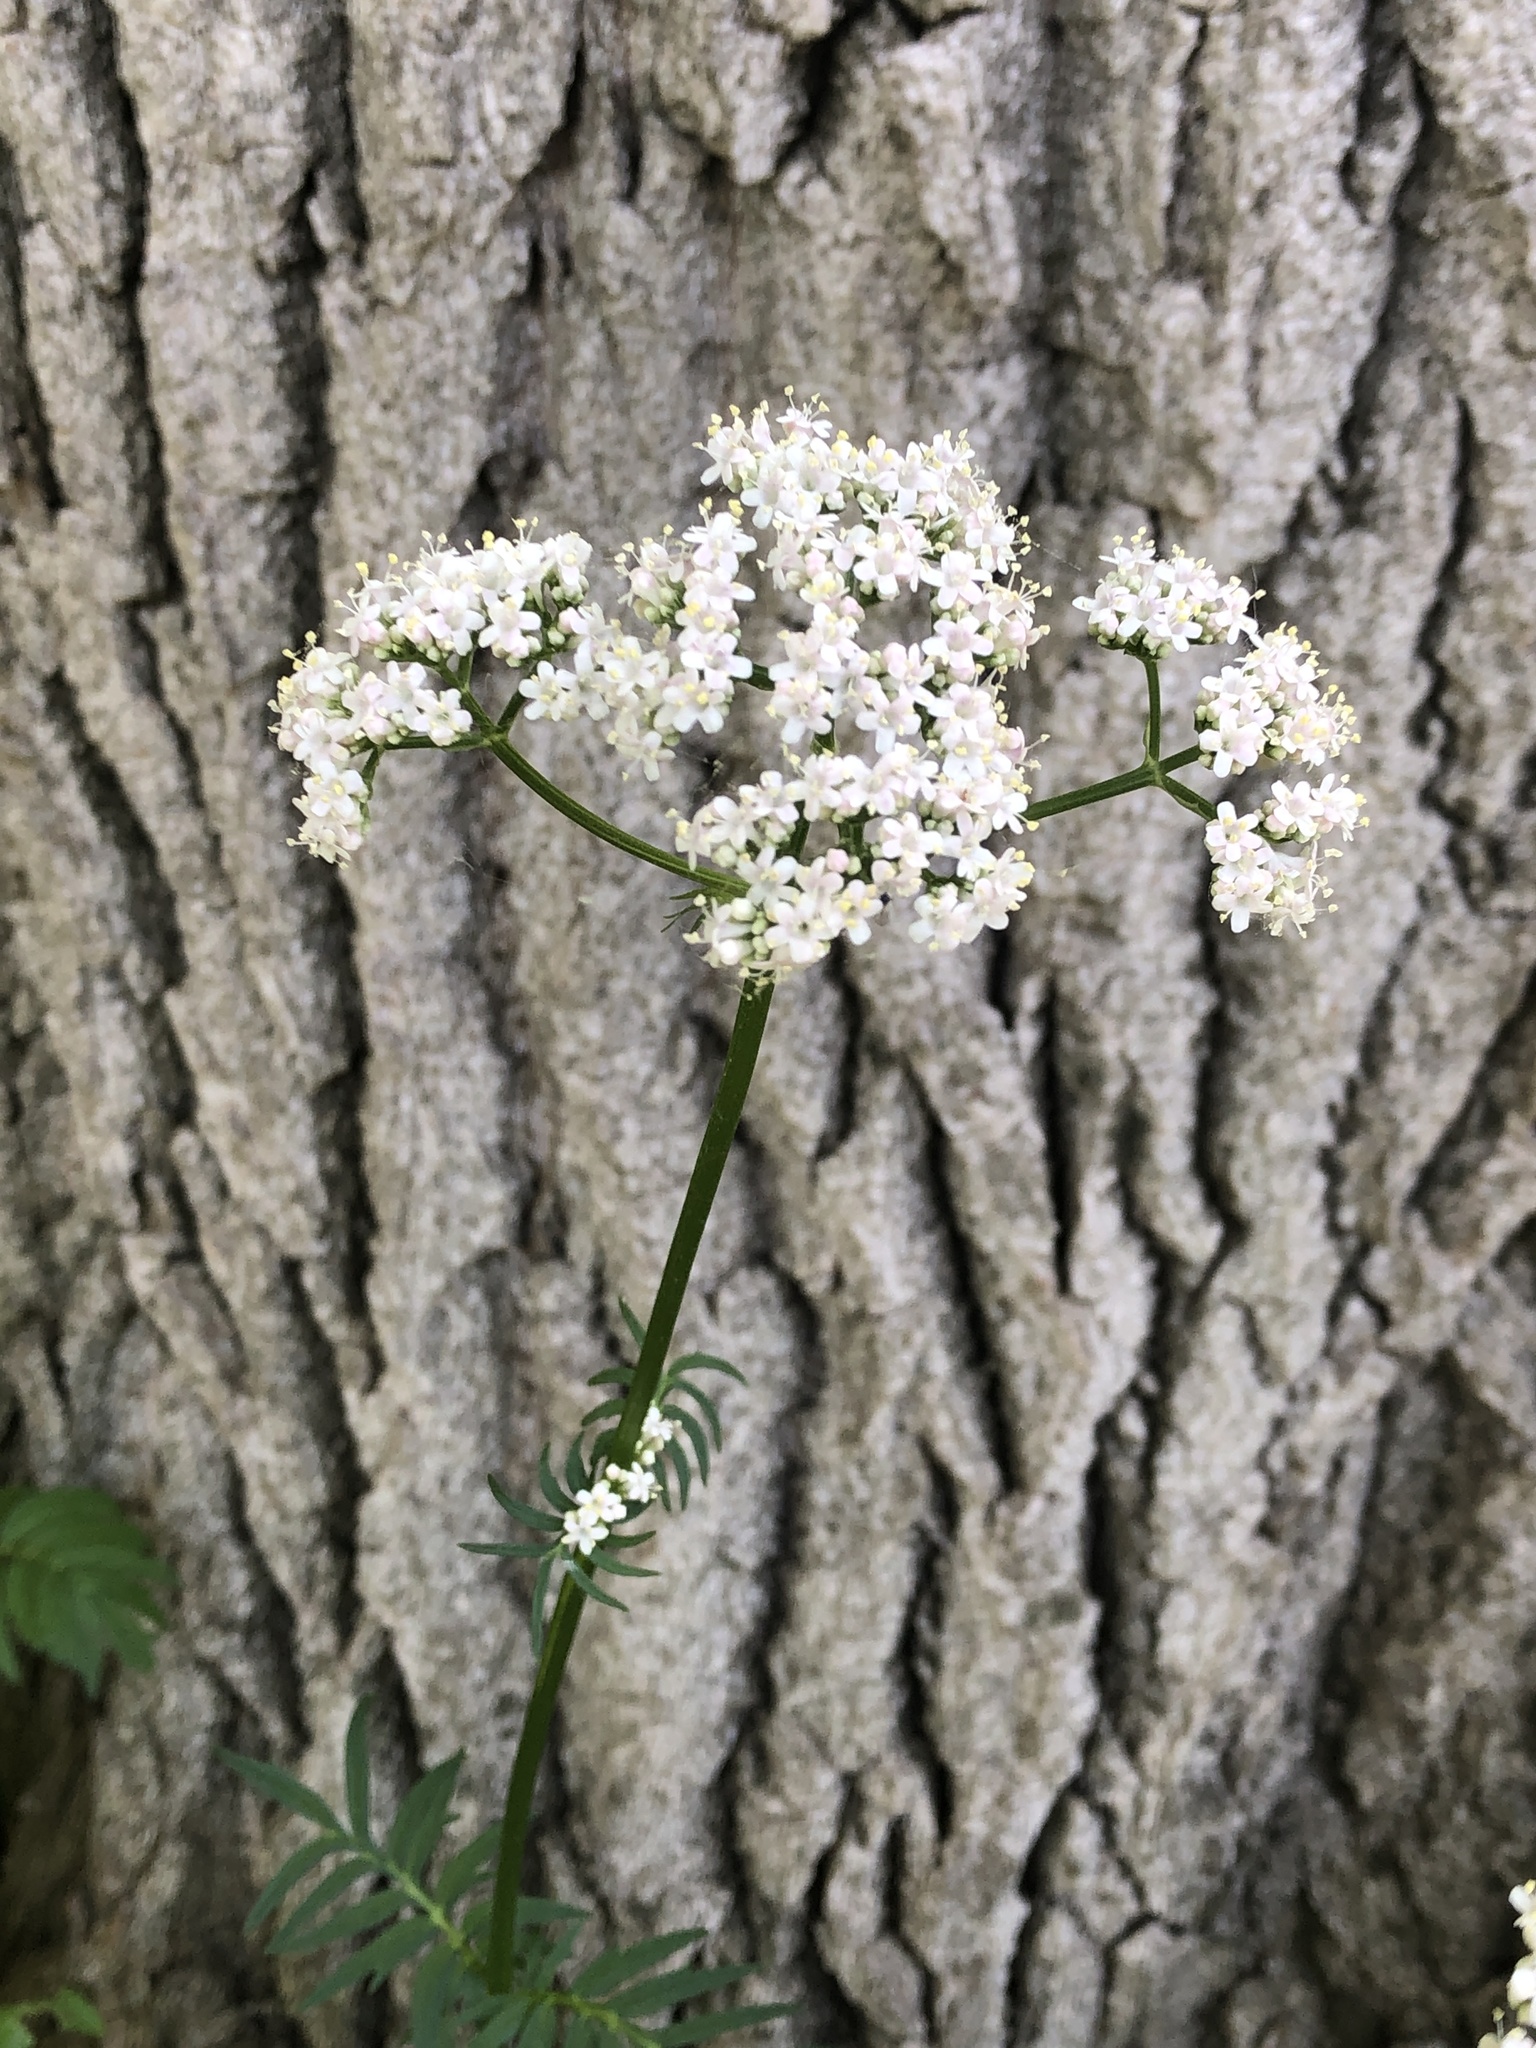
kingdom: Plantae
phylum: Tracheophyta
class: Magnoliopsida
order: Dipsacales
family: Caprifoliaceae
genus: Valeriana
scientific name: Valeriana officinalis
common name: Common valerian
